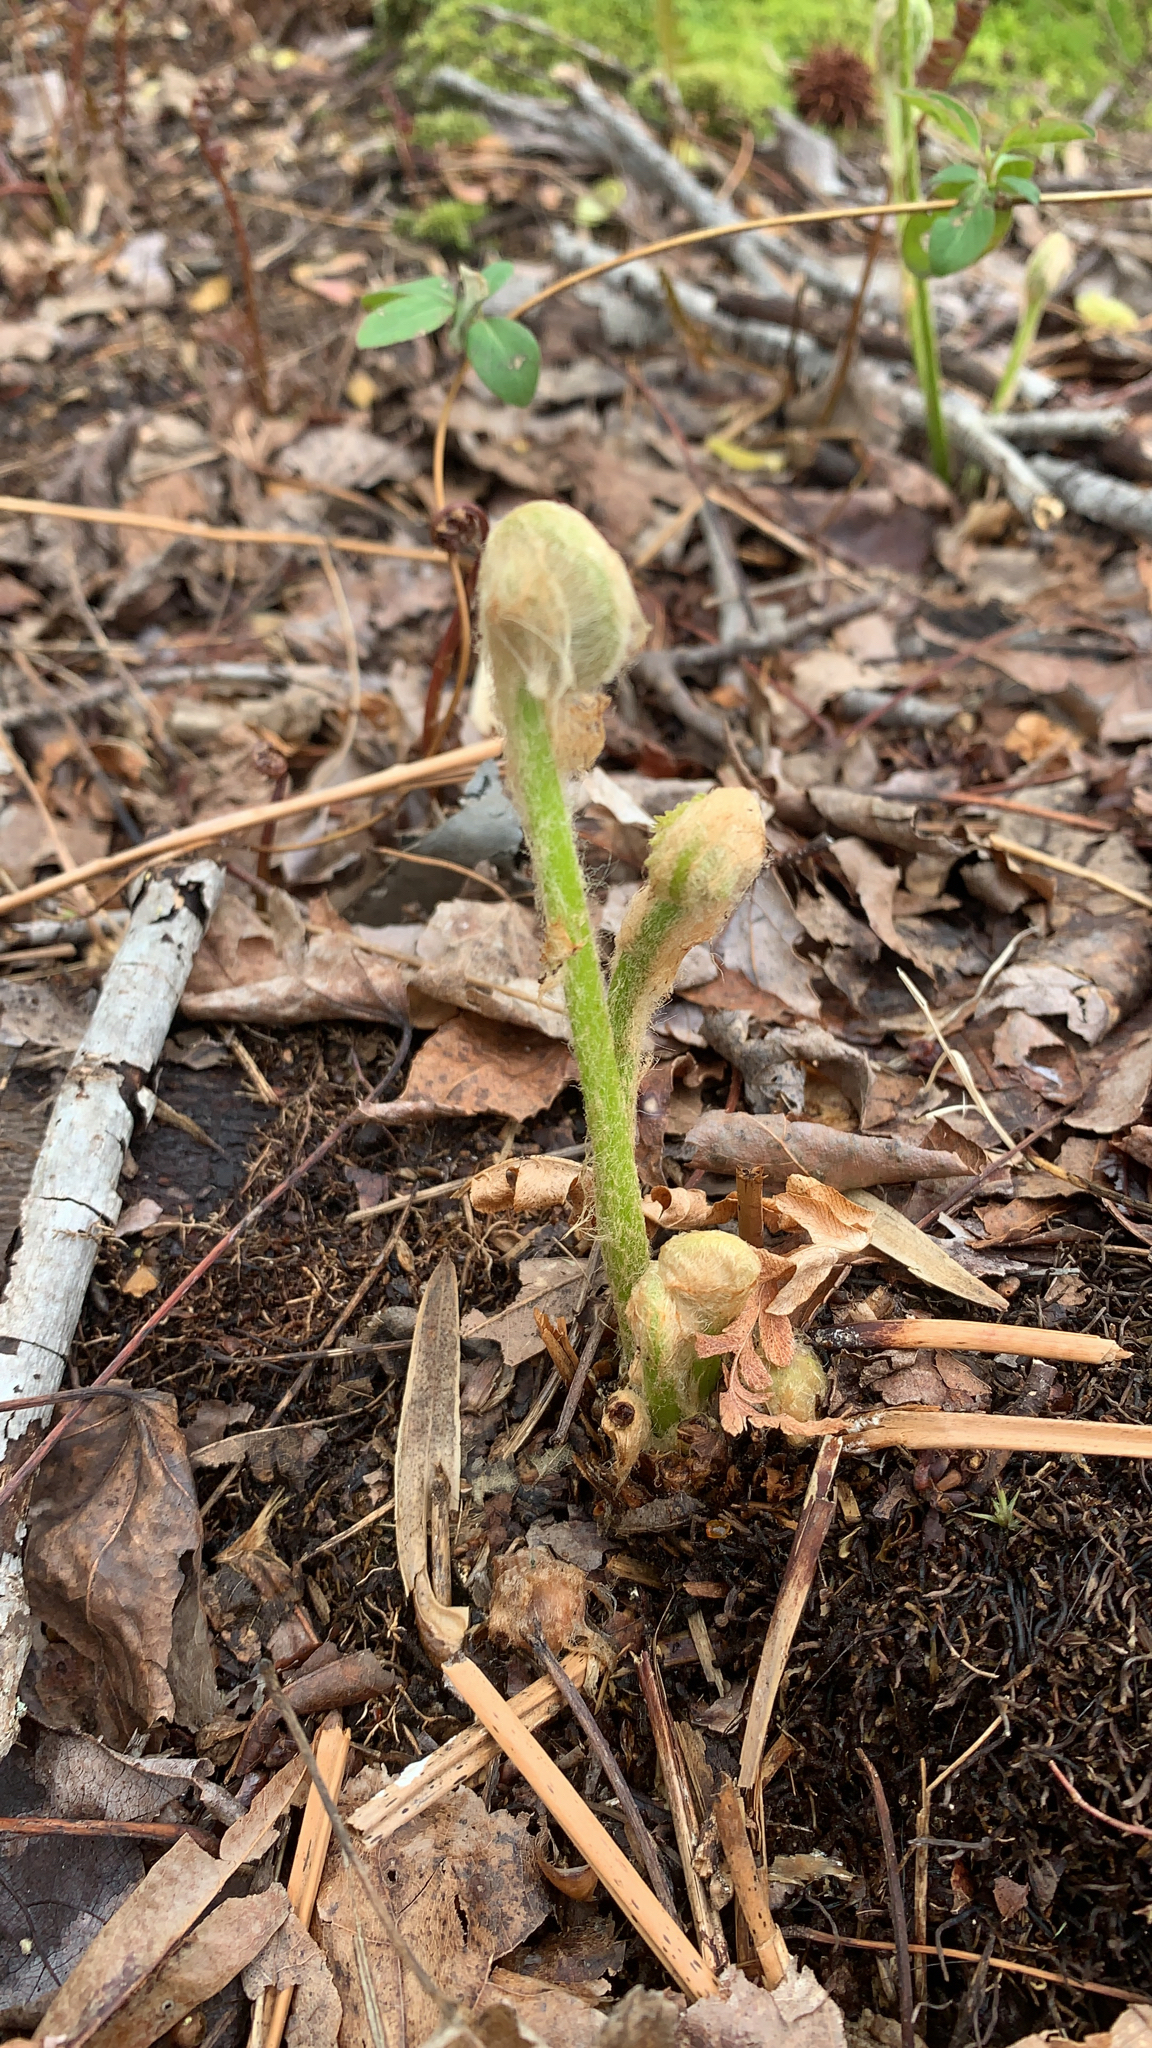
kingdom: Plantae
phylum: Tracheophyta
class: Polypodiopsida
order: Osmundales
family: Osmundaceae
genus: Osmundastrum
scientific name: Osmundastrum cinnamomeum
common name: Cinnamon fern
